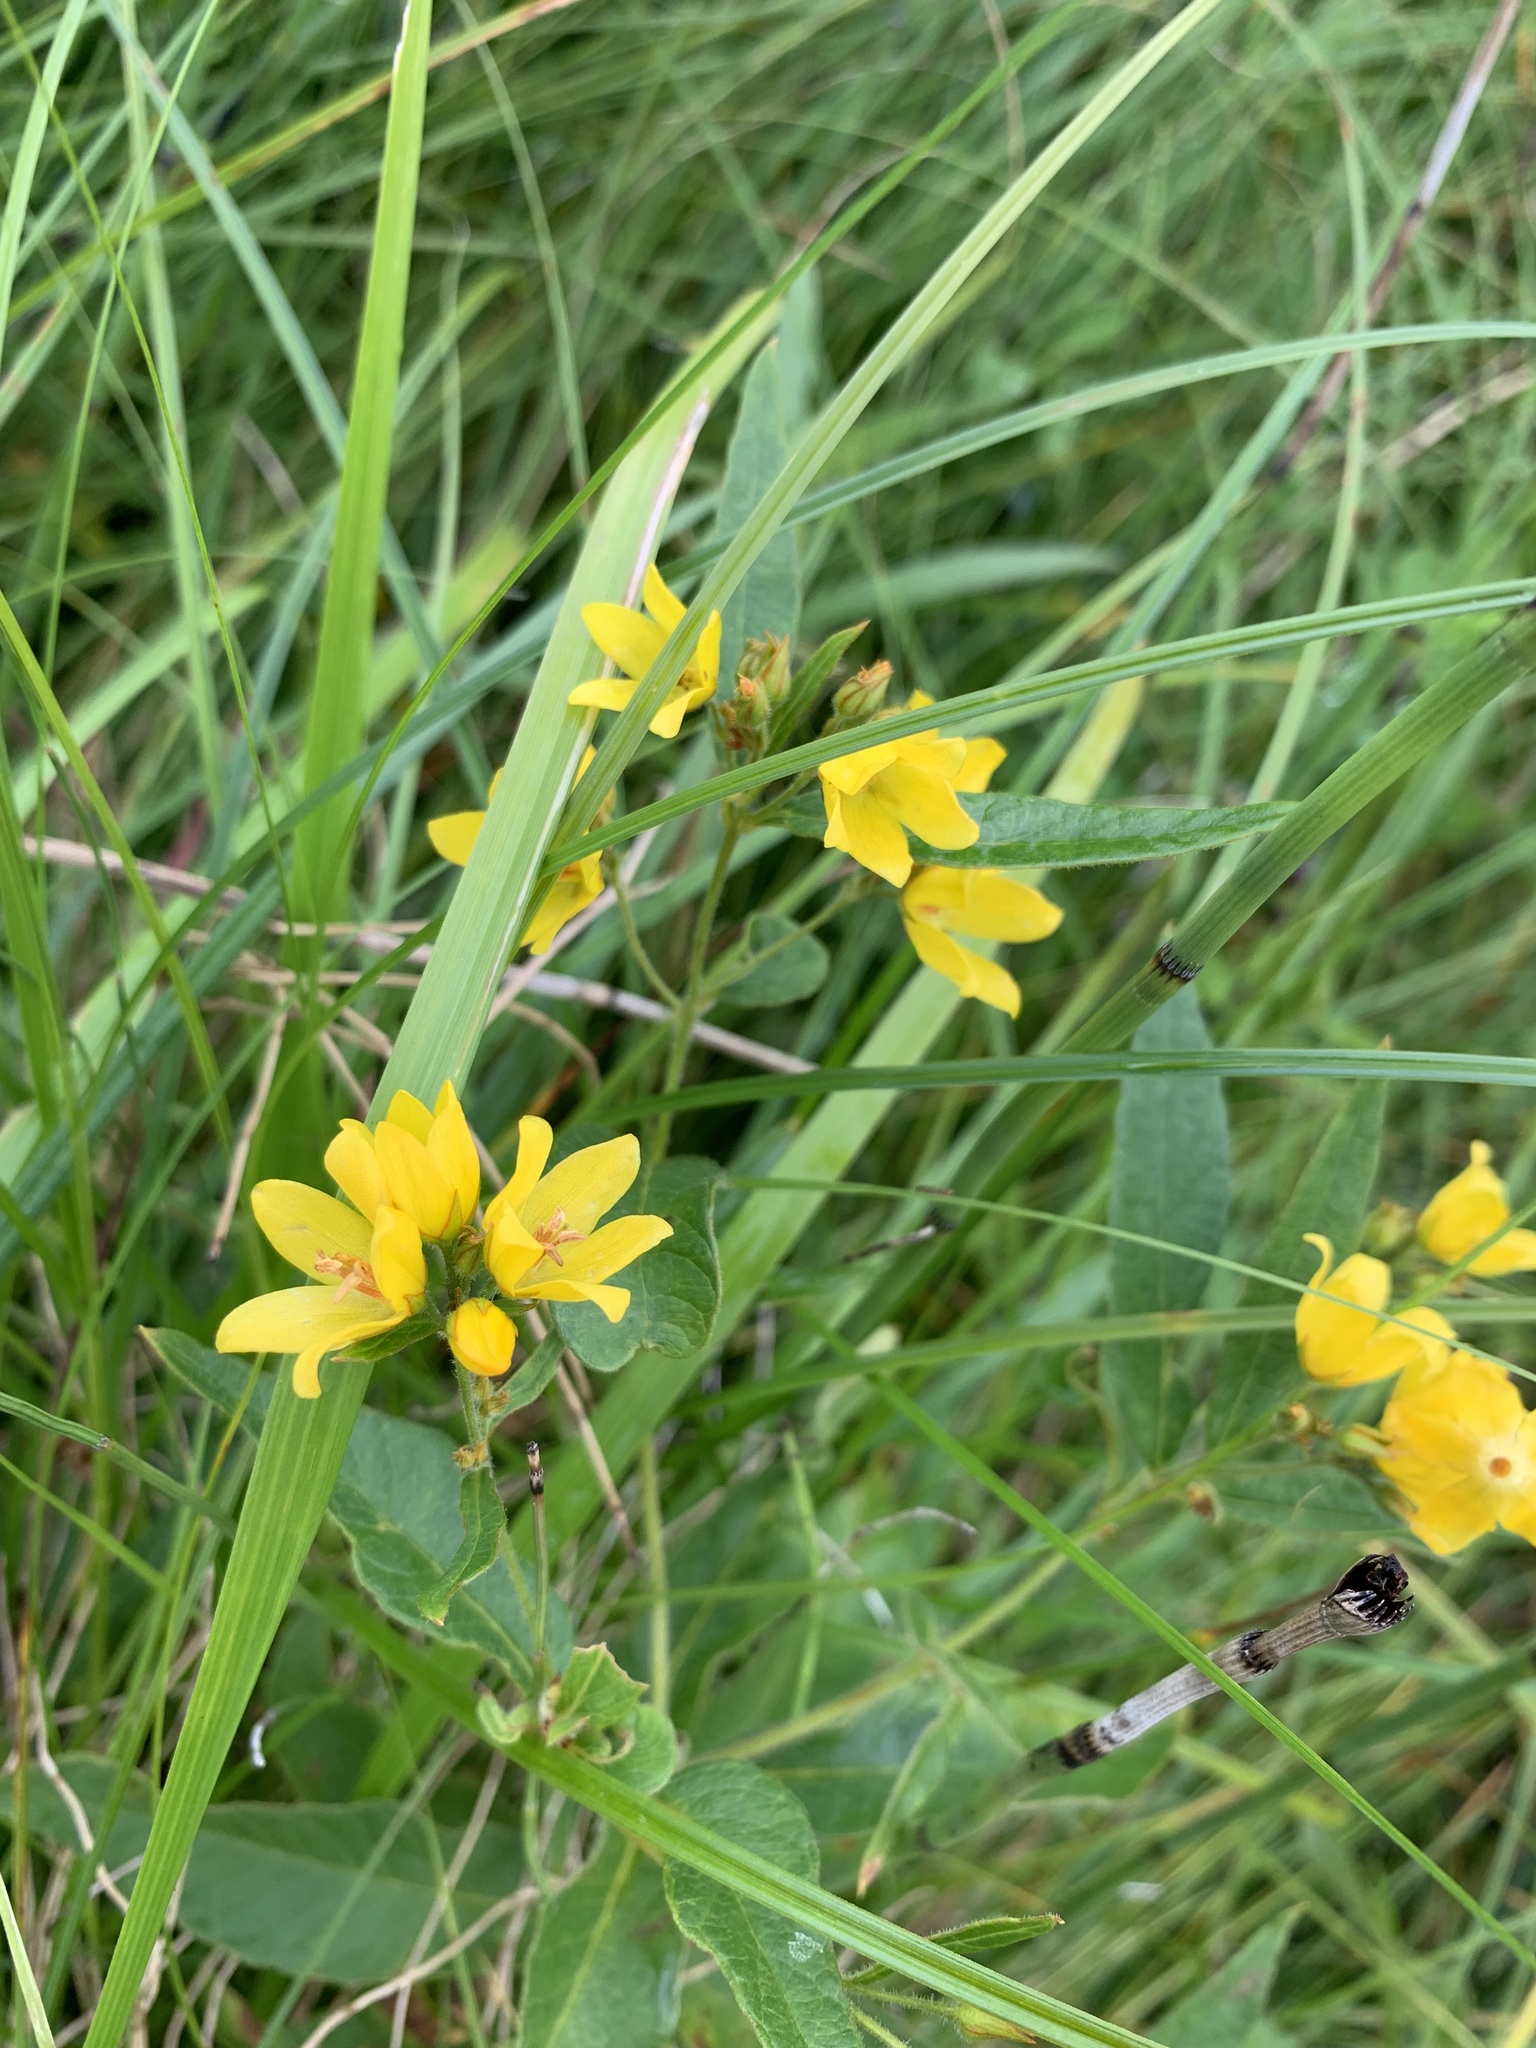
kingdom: Plantae
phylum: Tracheophyta
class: Magnoliopsida
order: Ericales
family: Primulaceae
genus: Lysimachia
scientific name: Lysimachia vulgaris
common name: Yellow loosestrife
